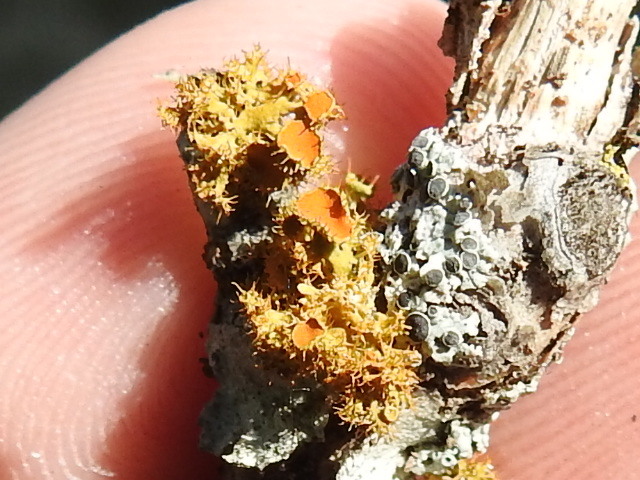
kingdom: Fungi
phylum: Ascomycota
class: Lecanoromycetes
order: Teloschistales
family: Teloschistaceae
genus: Niorma
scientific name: Niorma chrysophthalma
